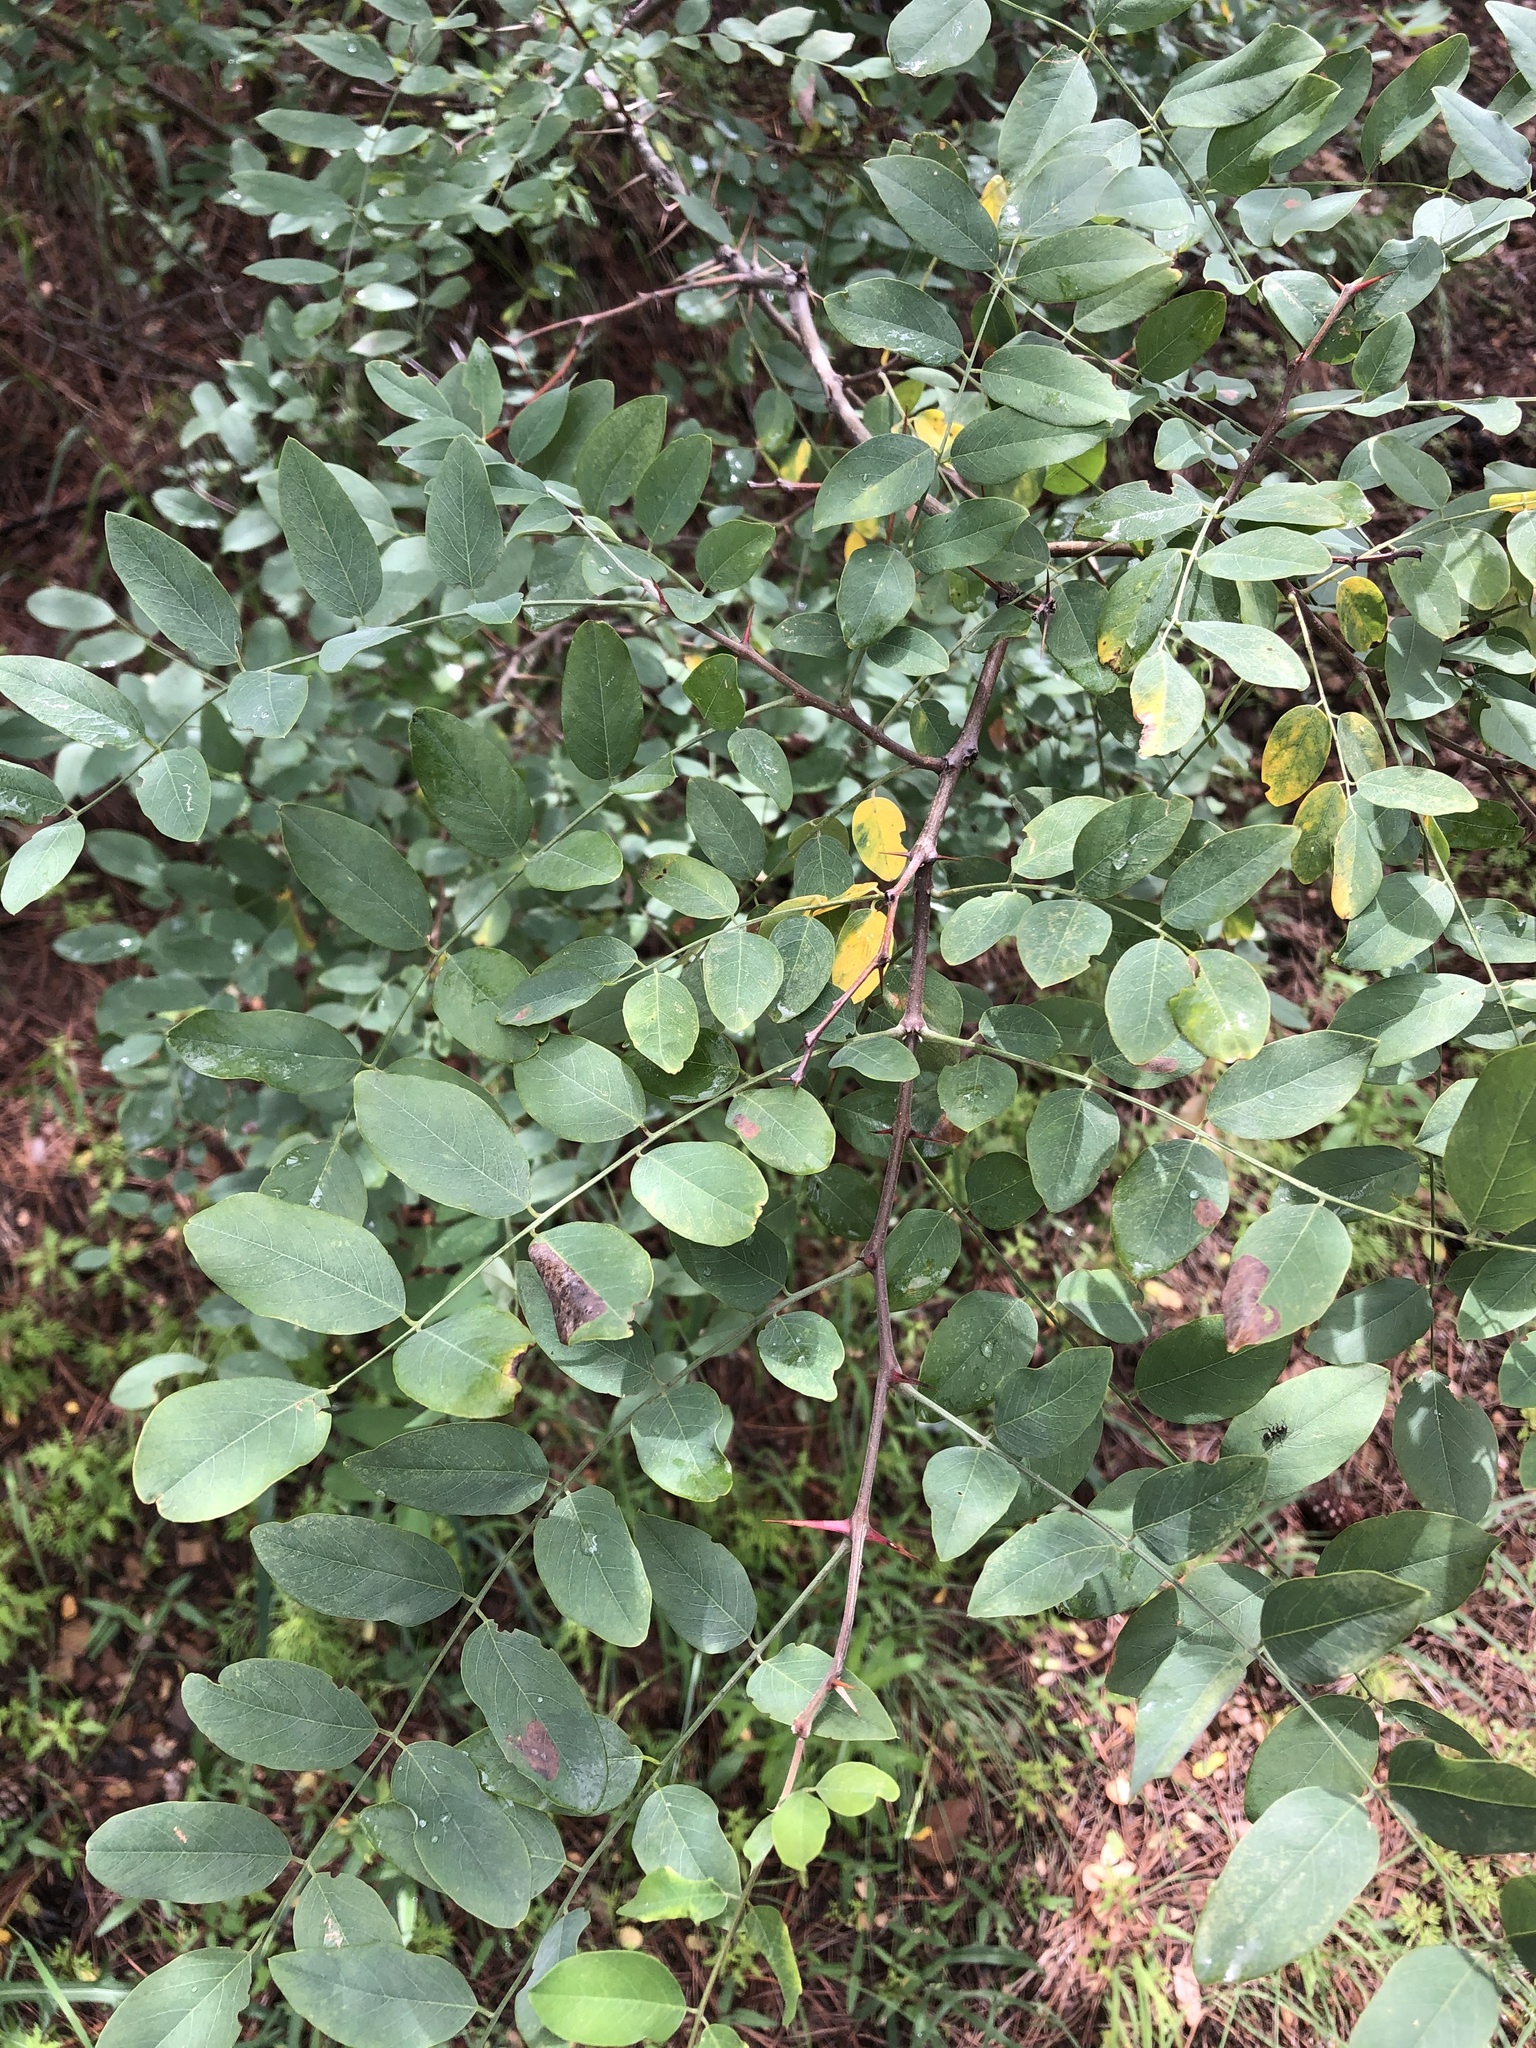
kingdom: Plantae
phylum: Tracheophyta
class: Magnoliopsida
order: Fabales
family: Fabaceae
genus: Robinia
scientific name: Robinia neomexicana
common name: New mexico locust
